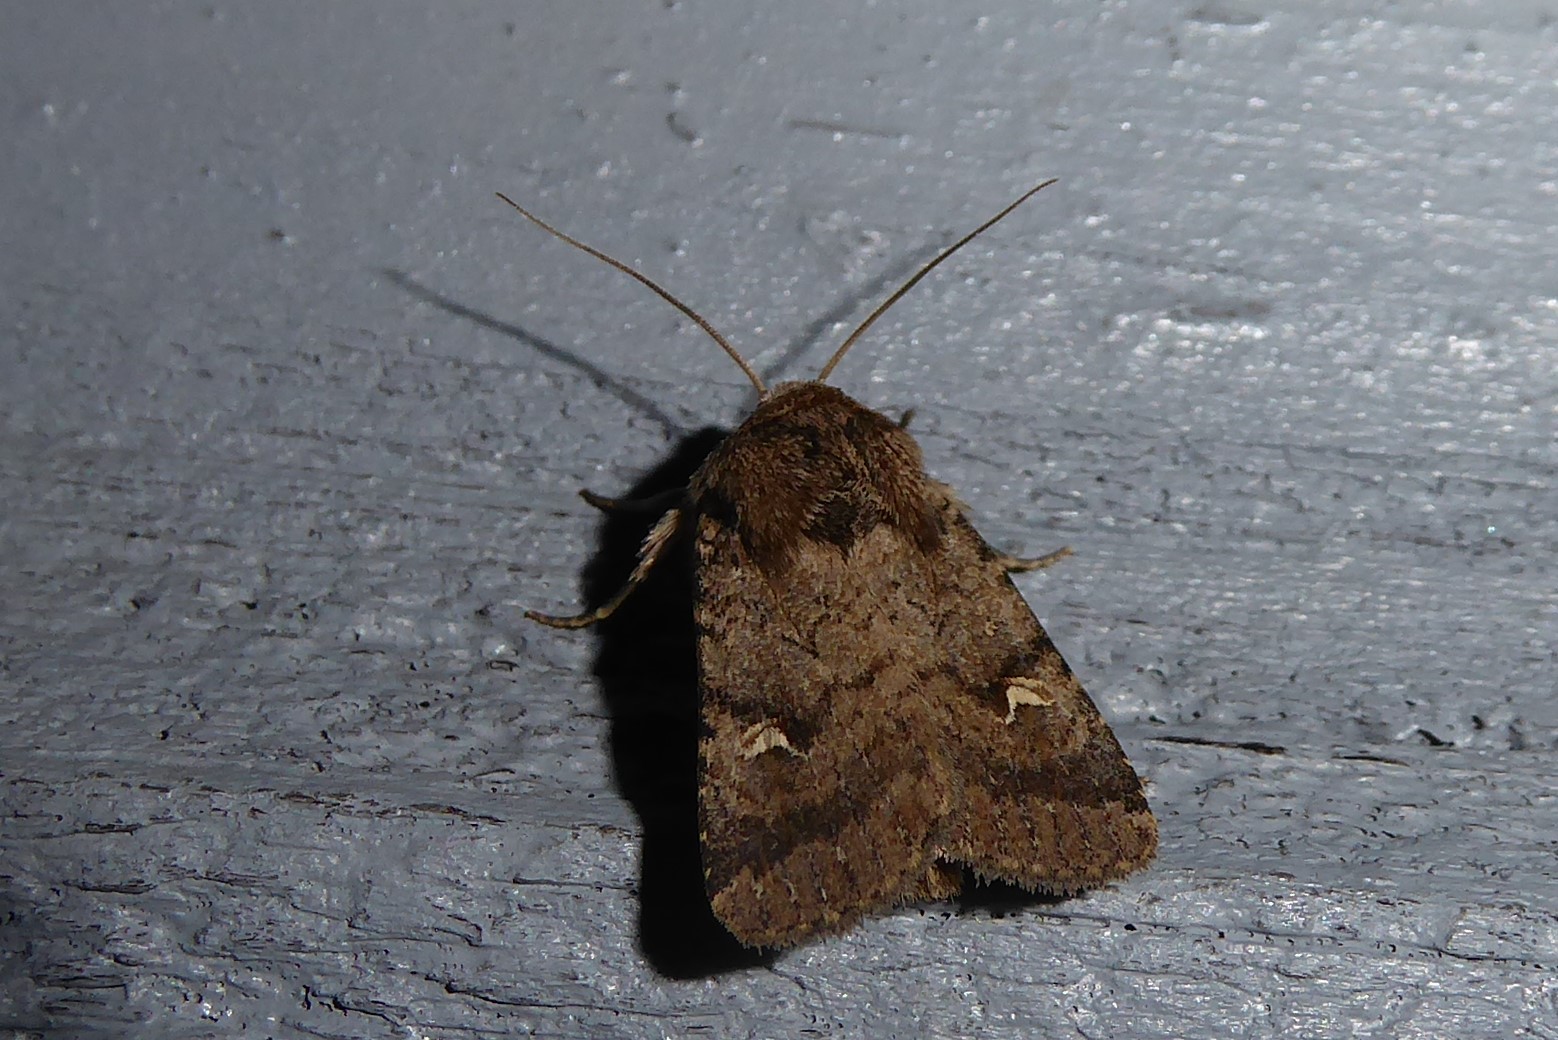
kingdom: Animalia
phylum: Arthropoda
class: Insecta
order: Lepidoptera
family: Noctuidae
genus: Proteuxoa
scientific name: Proteuxoa tetronycha
